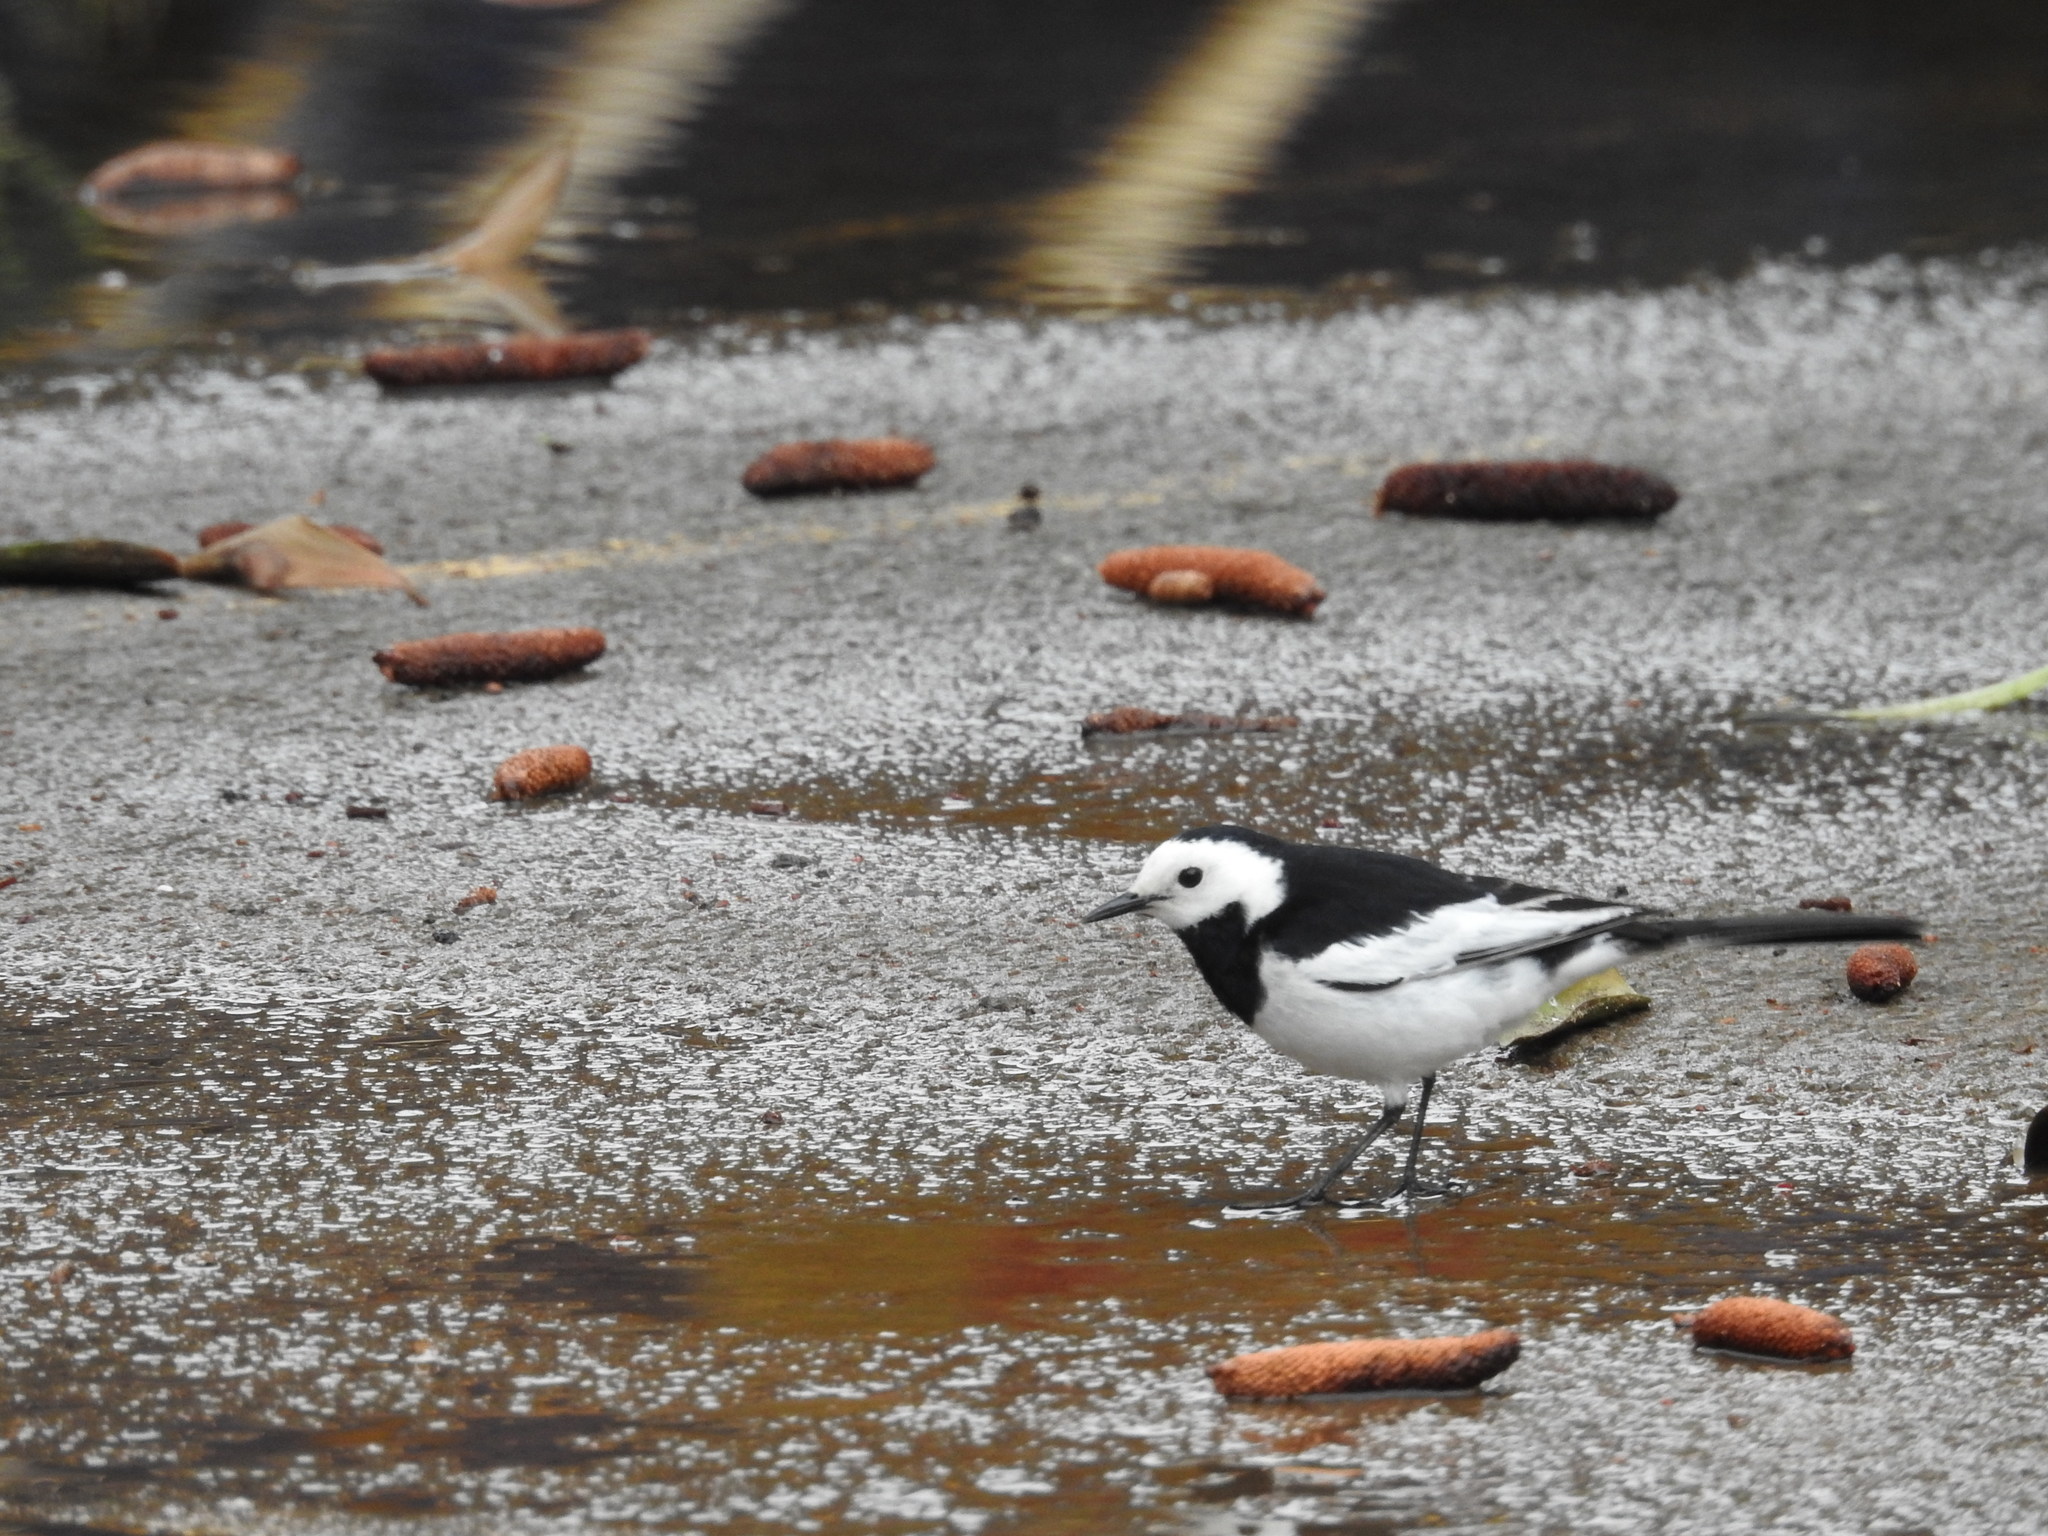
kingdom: Animalia
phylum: Chordata
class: Aves
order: Passeriformes
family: Motacillidae
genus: Motacilla
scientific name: Motacilla alba
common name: White wagtail
